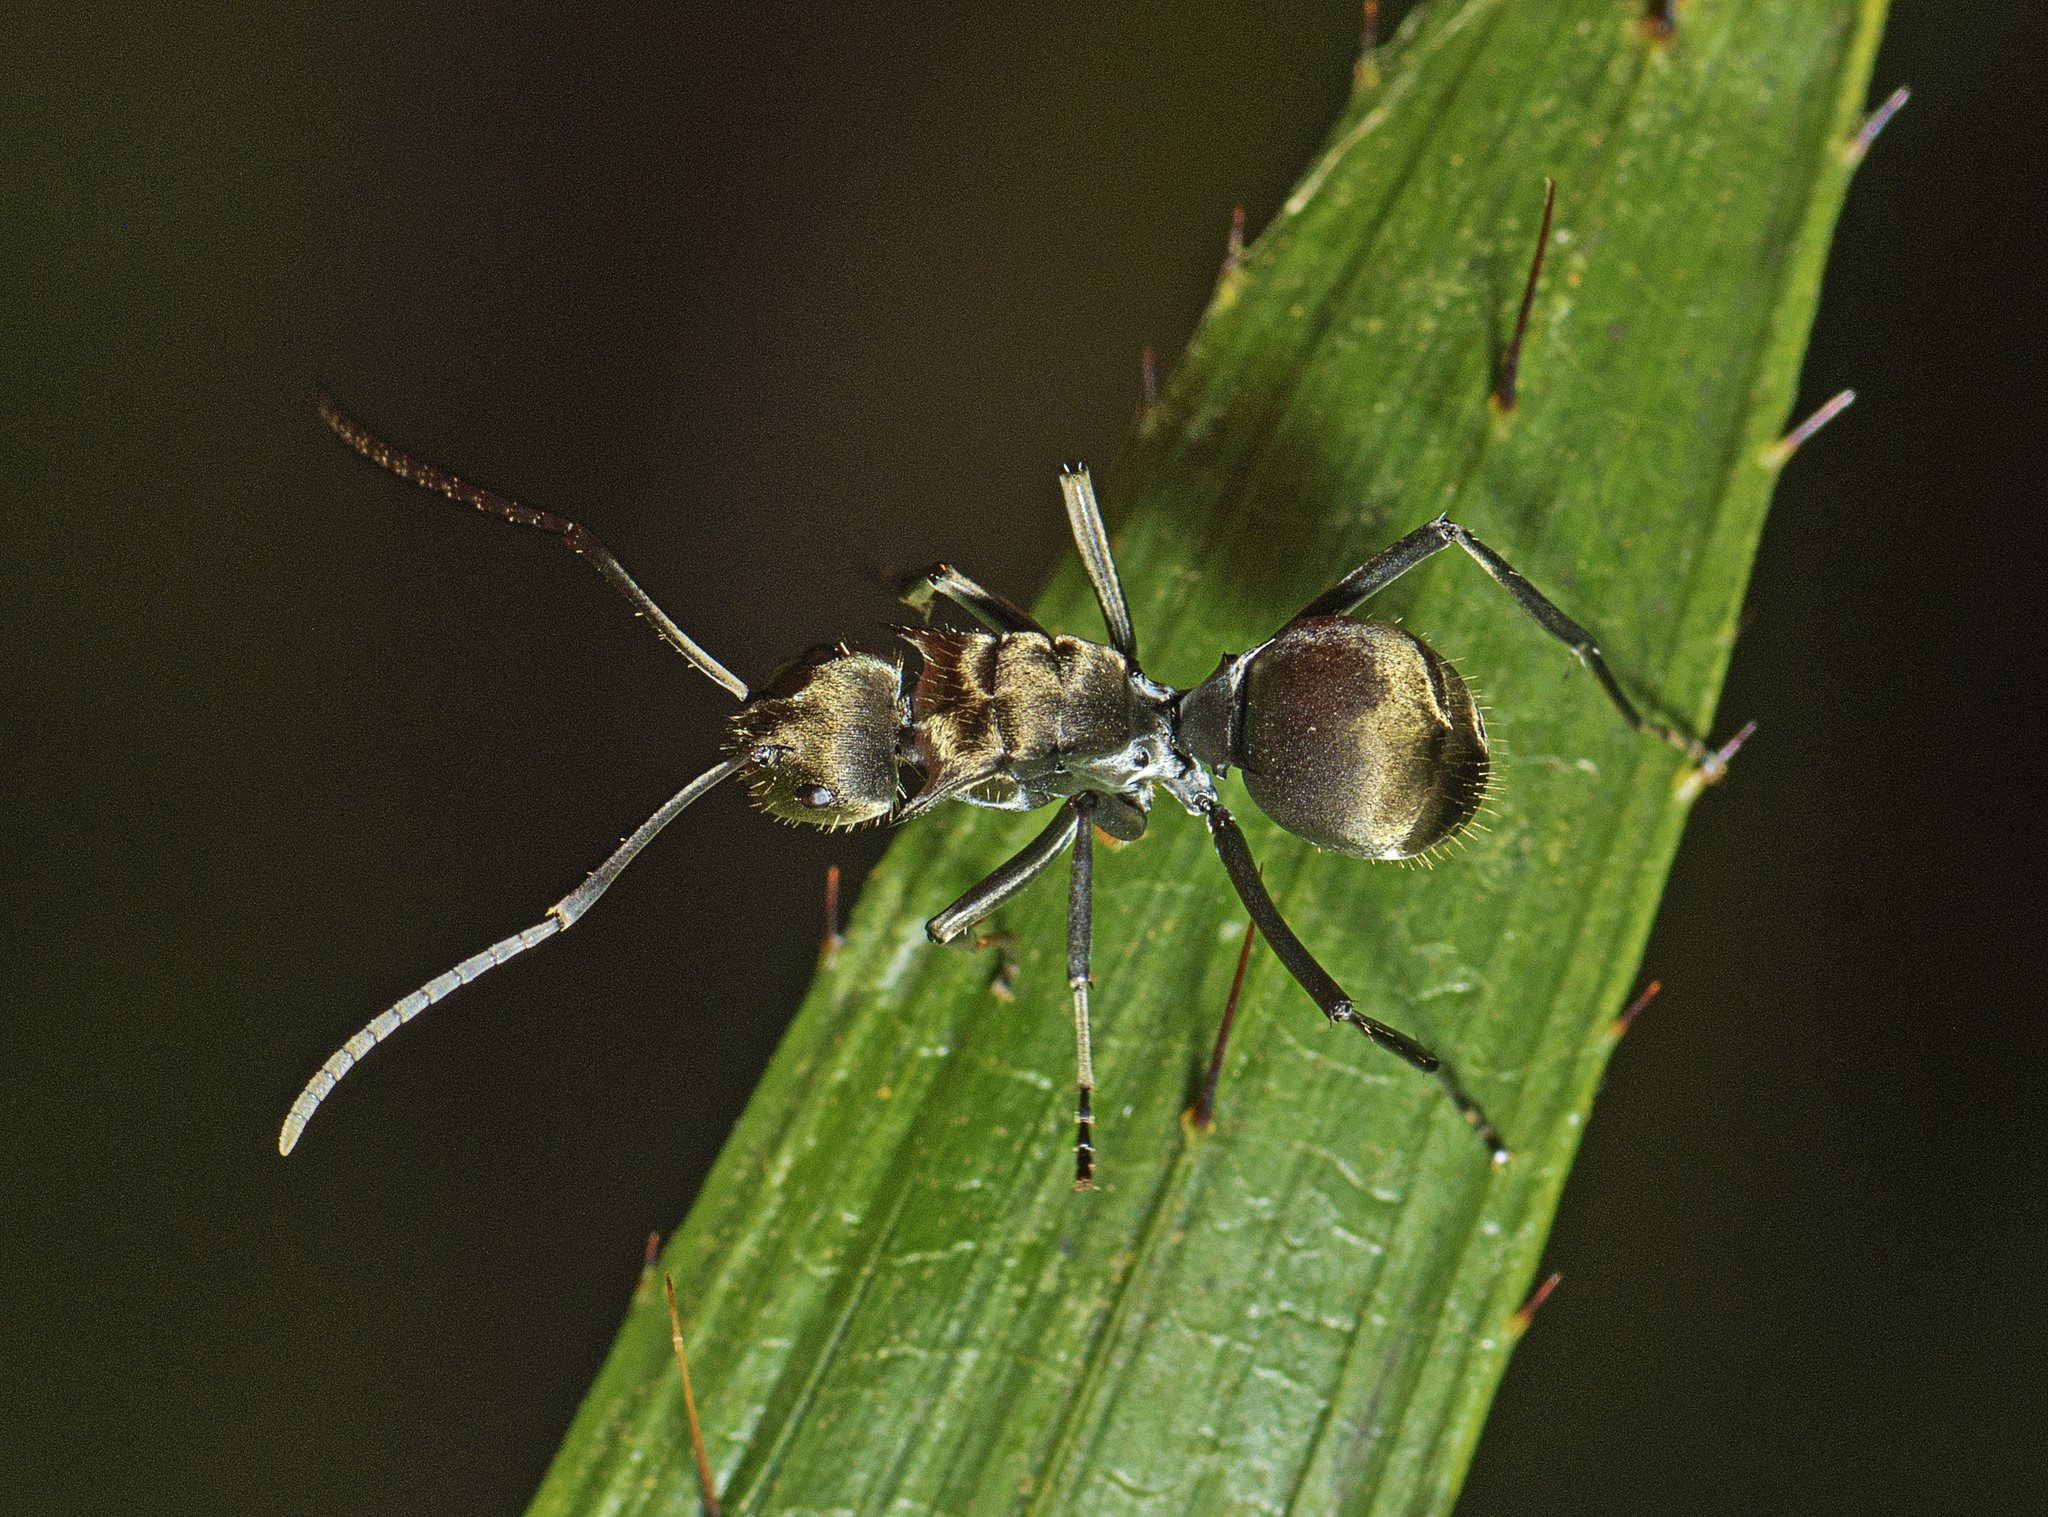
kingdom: Animalia
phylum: Arthropoda
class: Insecta
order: Hymenoptera
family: Formicidae
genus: Polyrhachis
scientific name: Polyrhachis foreli
